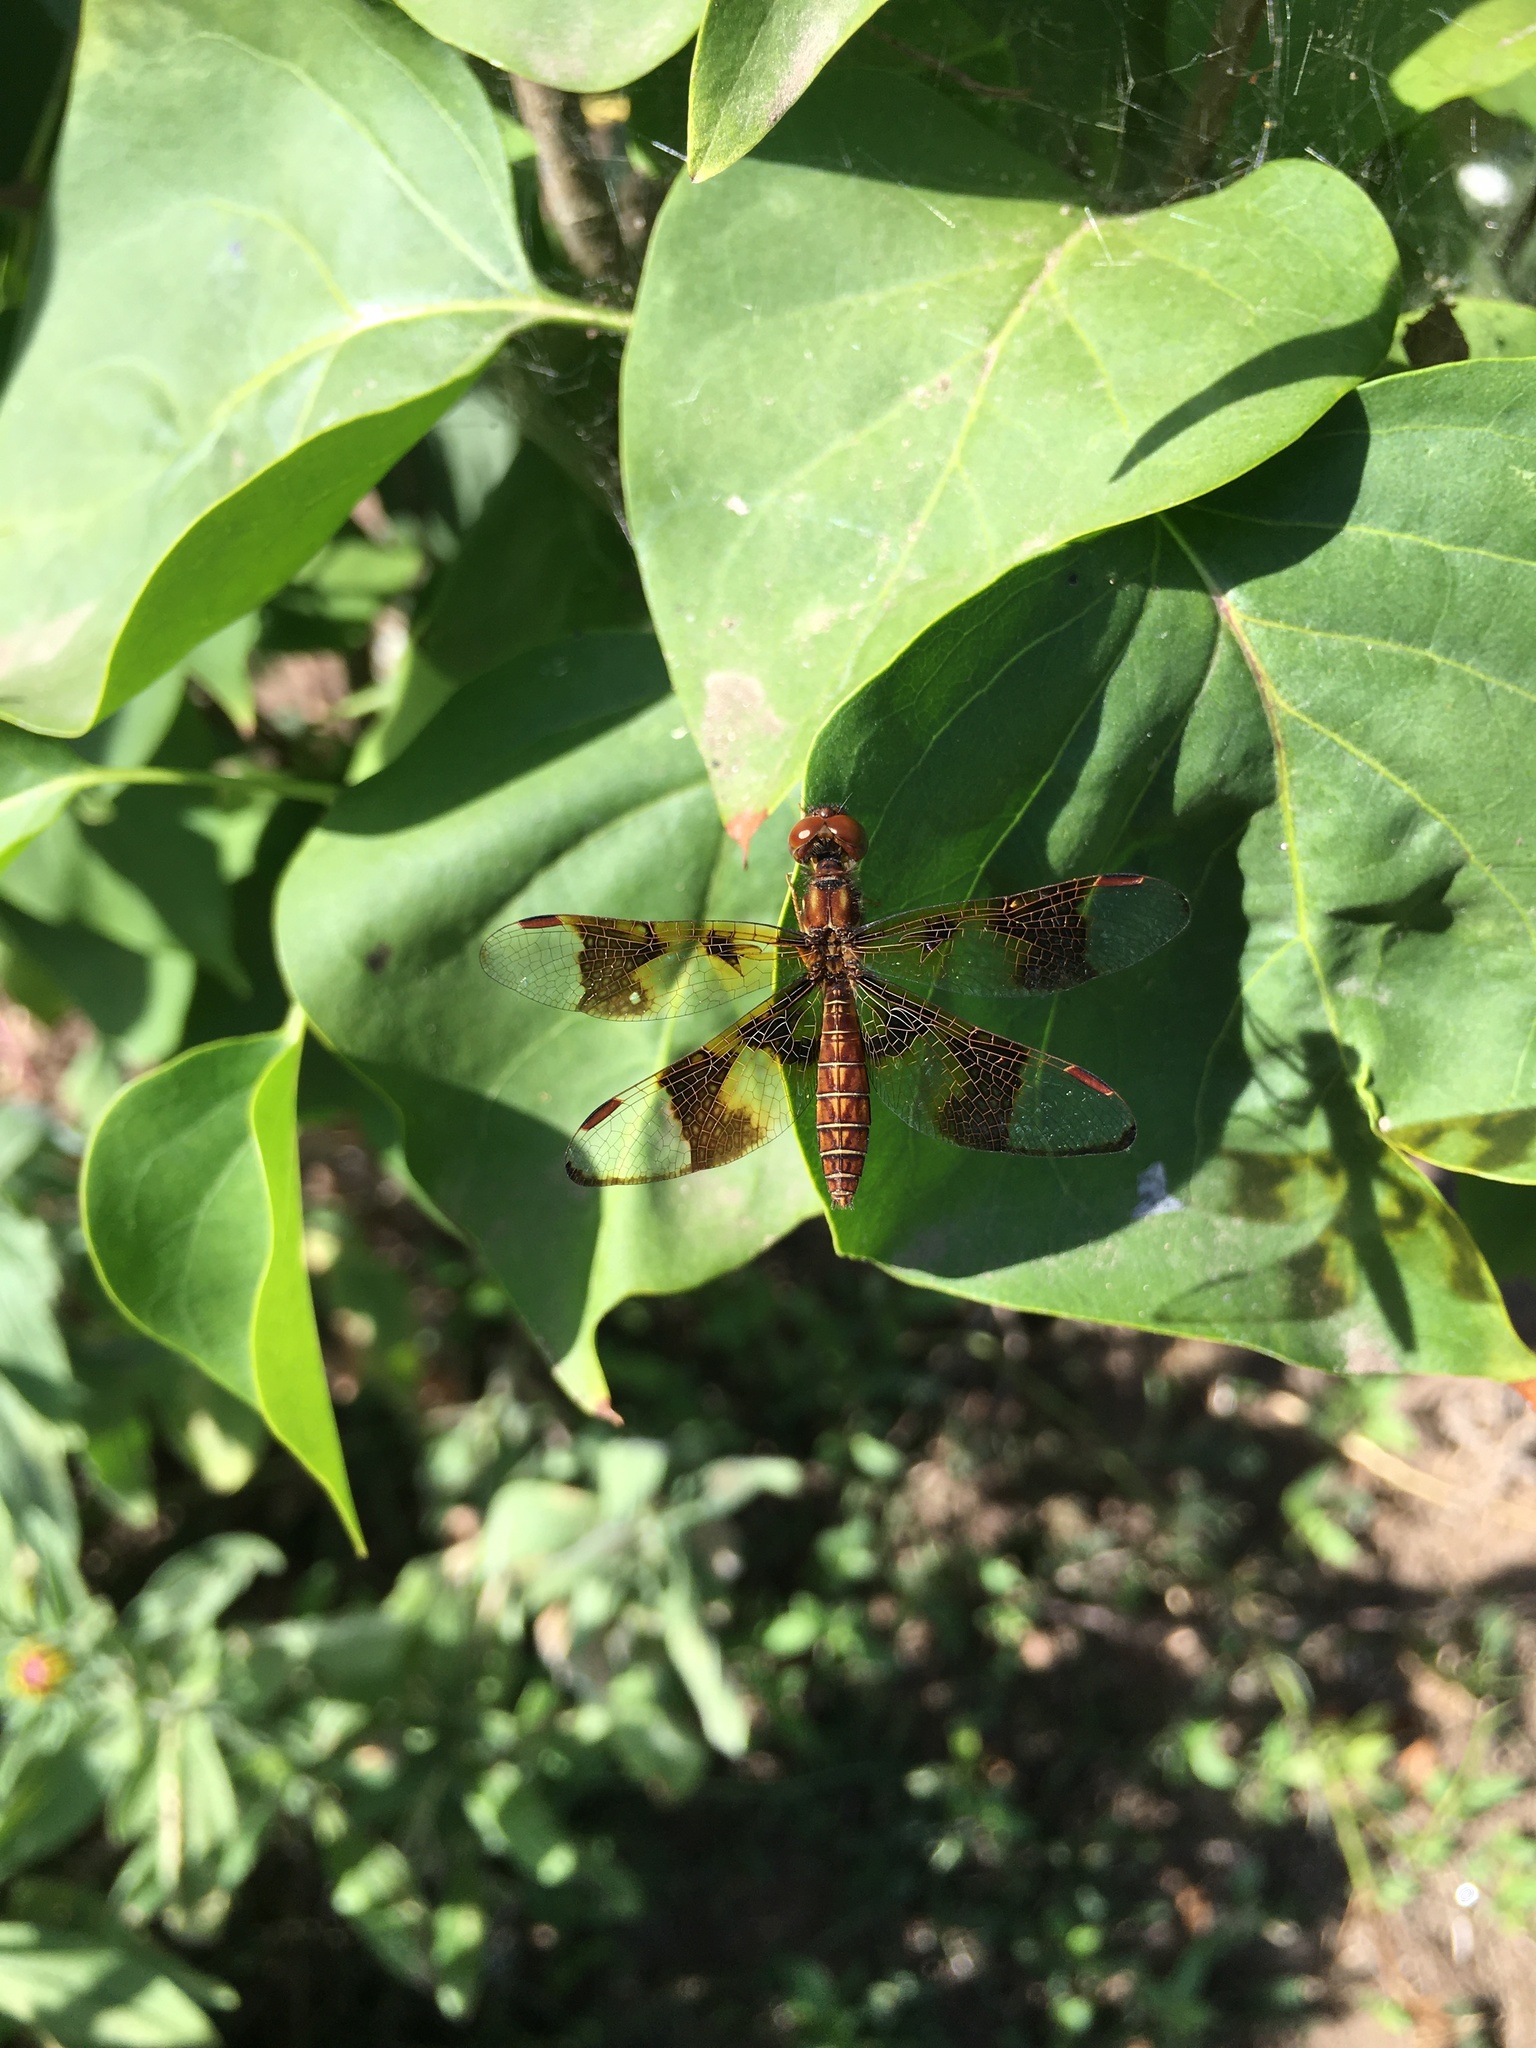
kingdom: Animalia
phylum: Arthropoda
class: Insecta
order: Odonata
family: Libellulidae
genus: Perithemis
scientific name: Perithemis tenera
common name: Eastern amberwing
